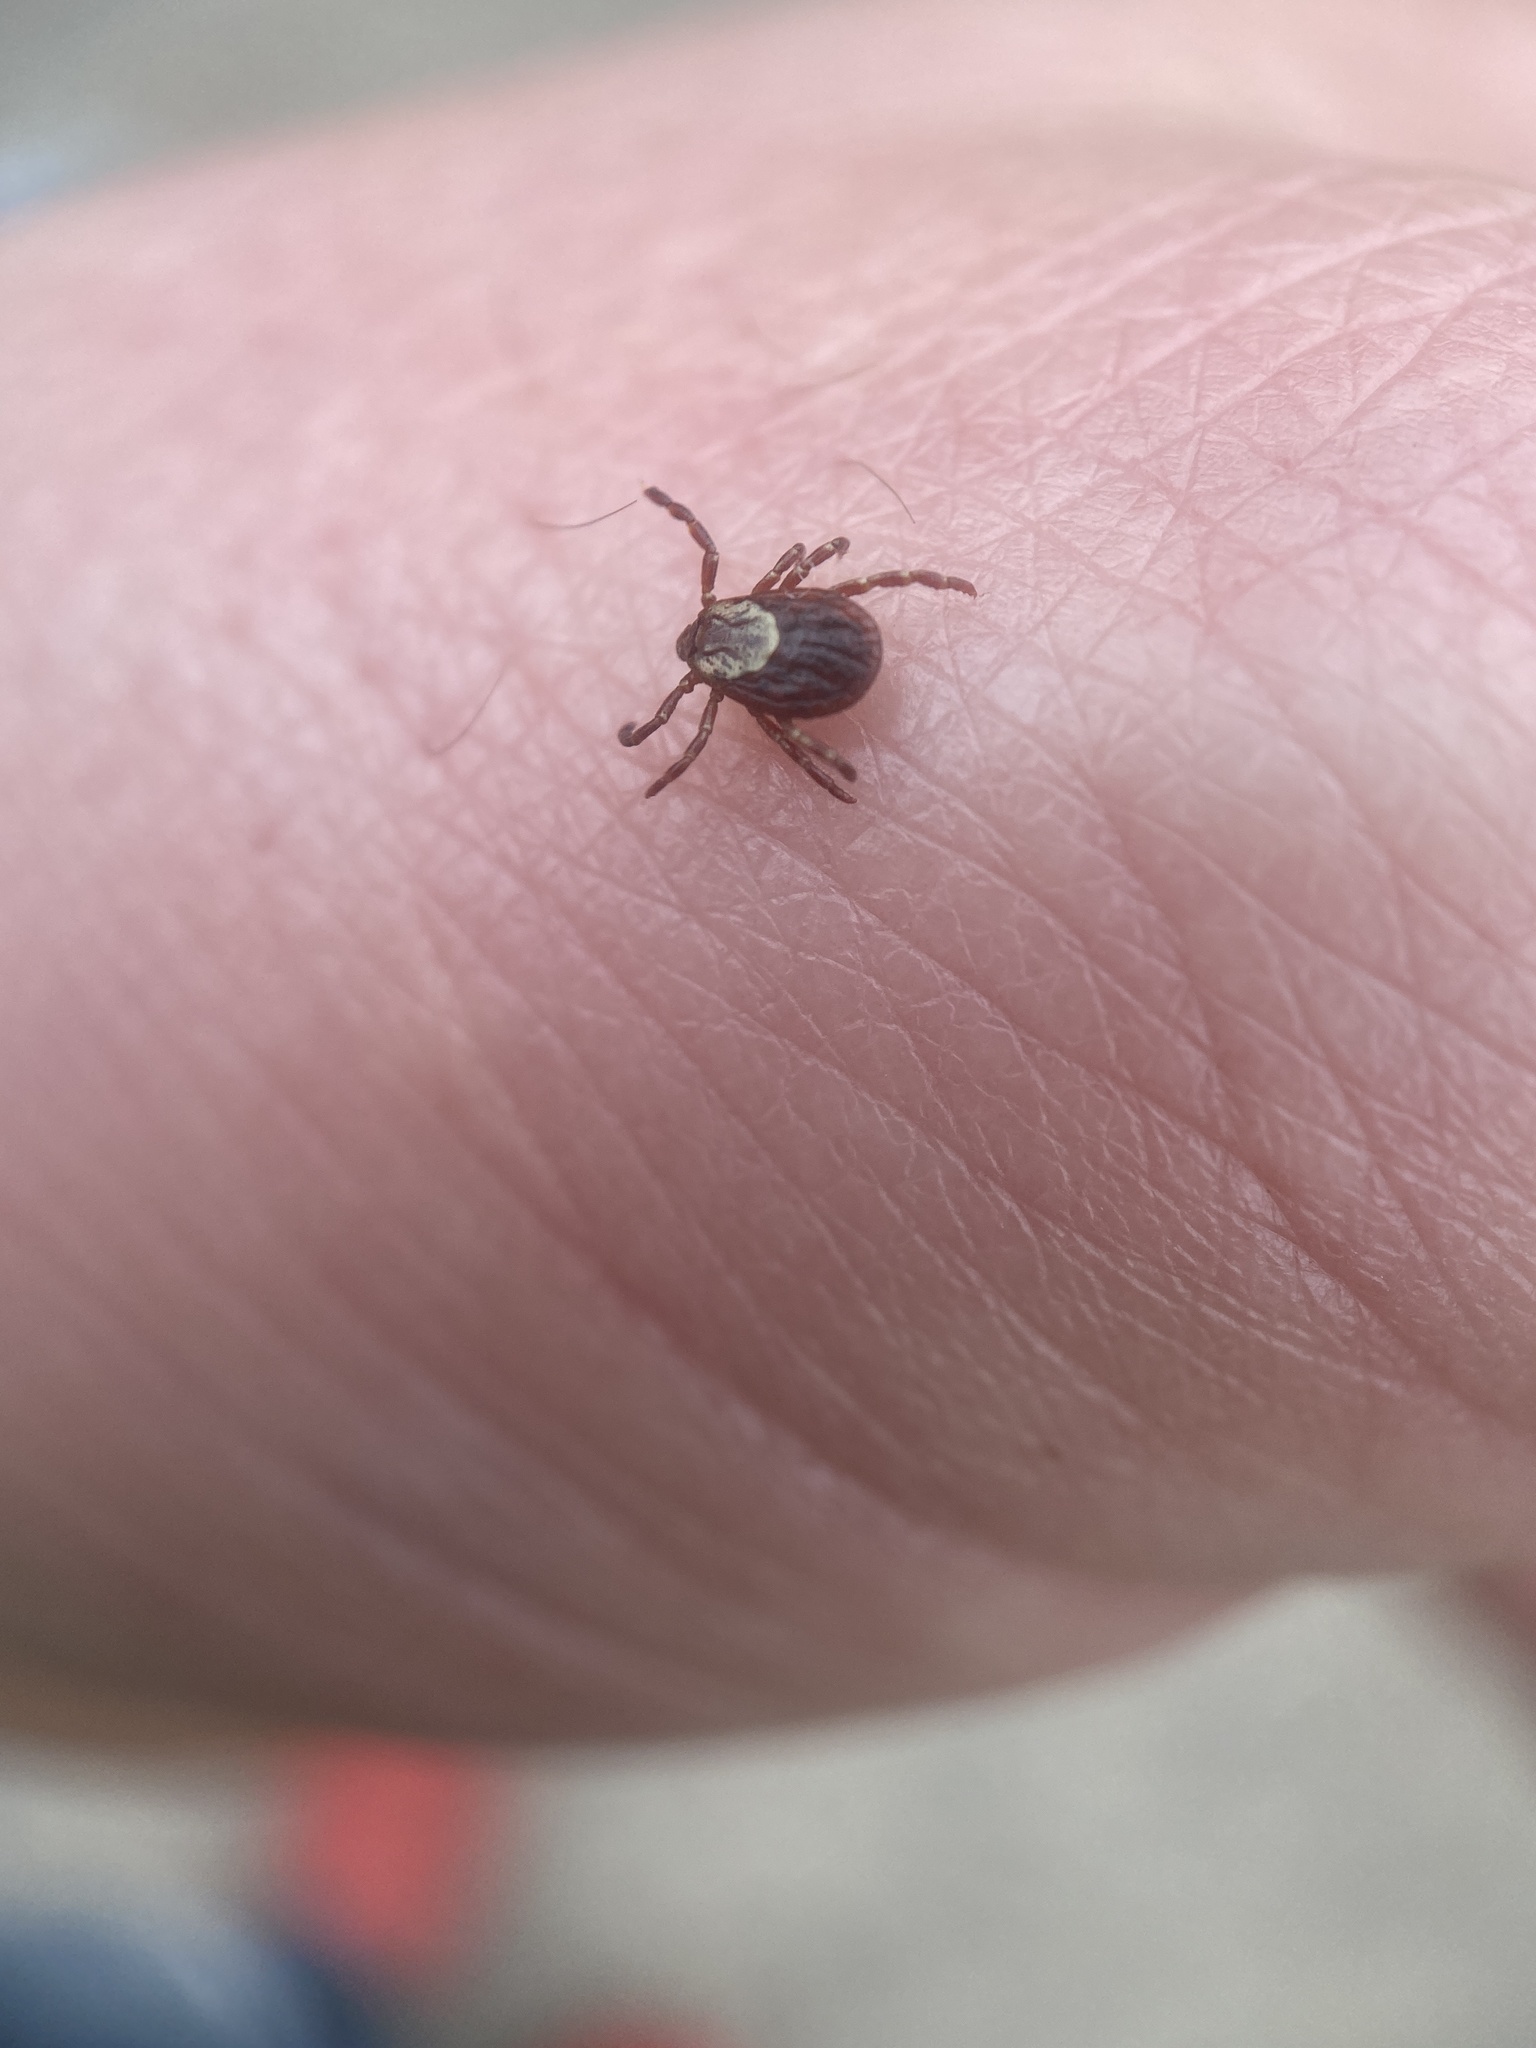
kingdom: Animalia
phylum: Arthropoda
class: Arachnida
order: Ixodida
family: Ixodidae
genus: Dermacentor
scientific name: Dermacentor variabilis
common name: American dog tick
